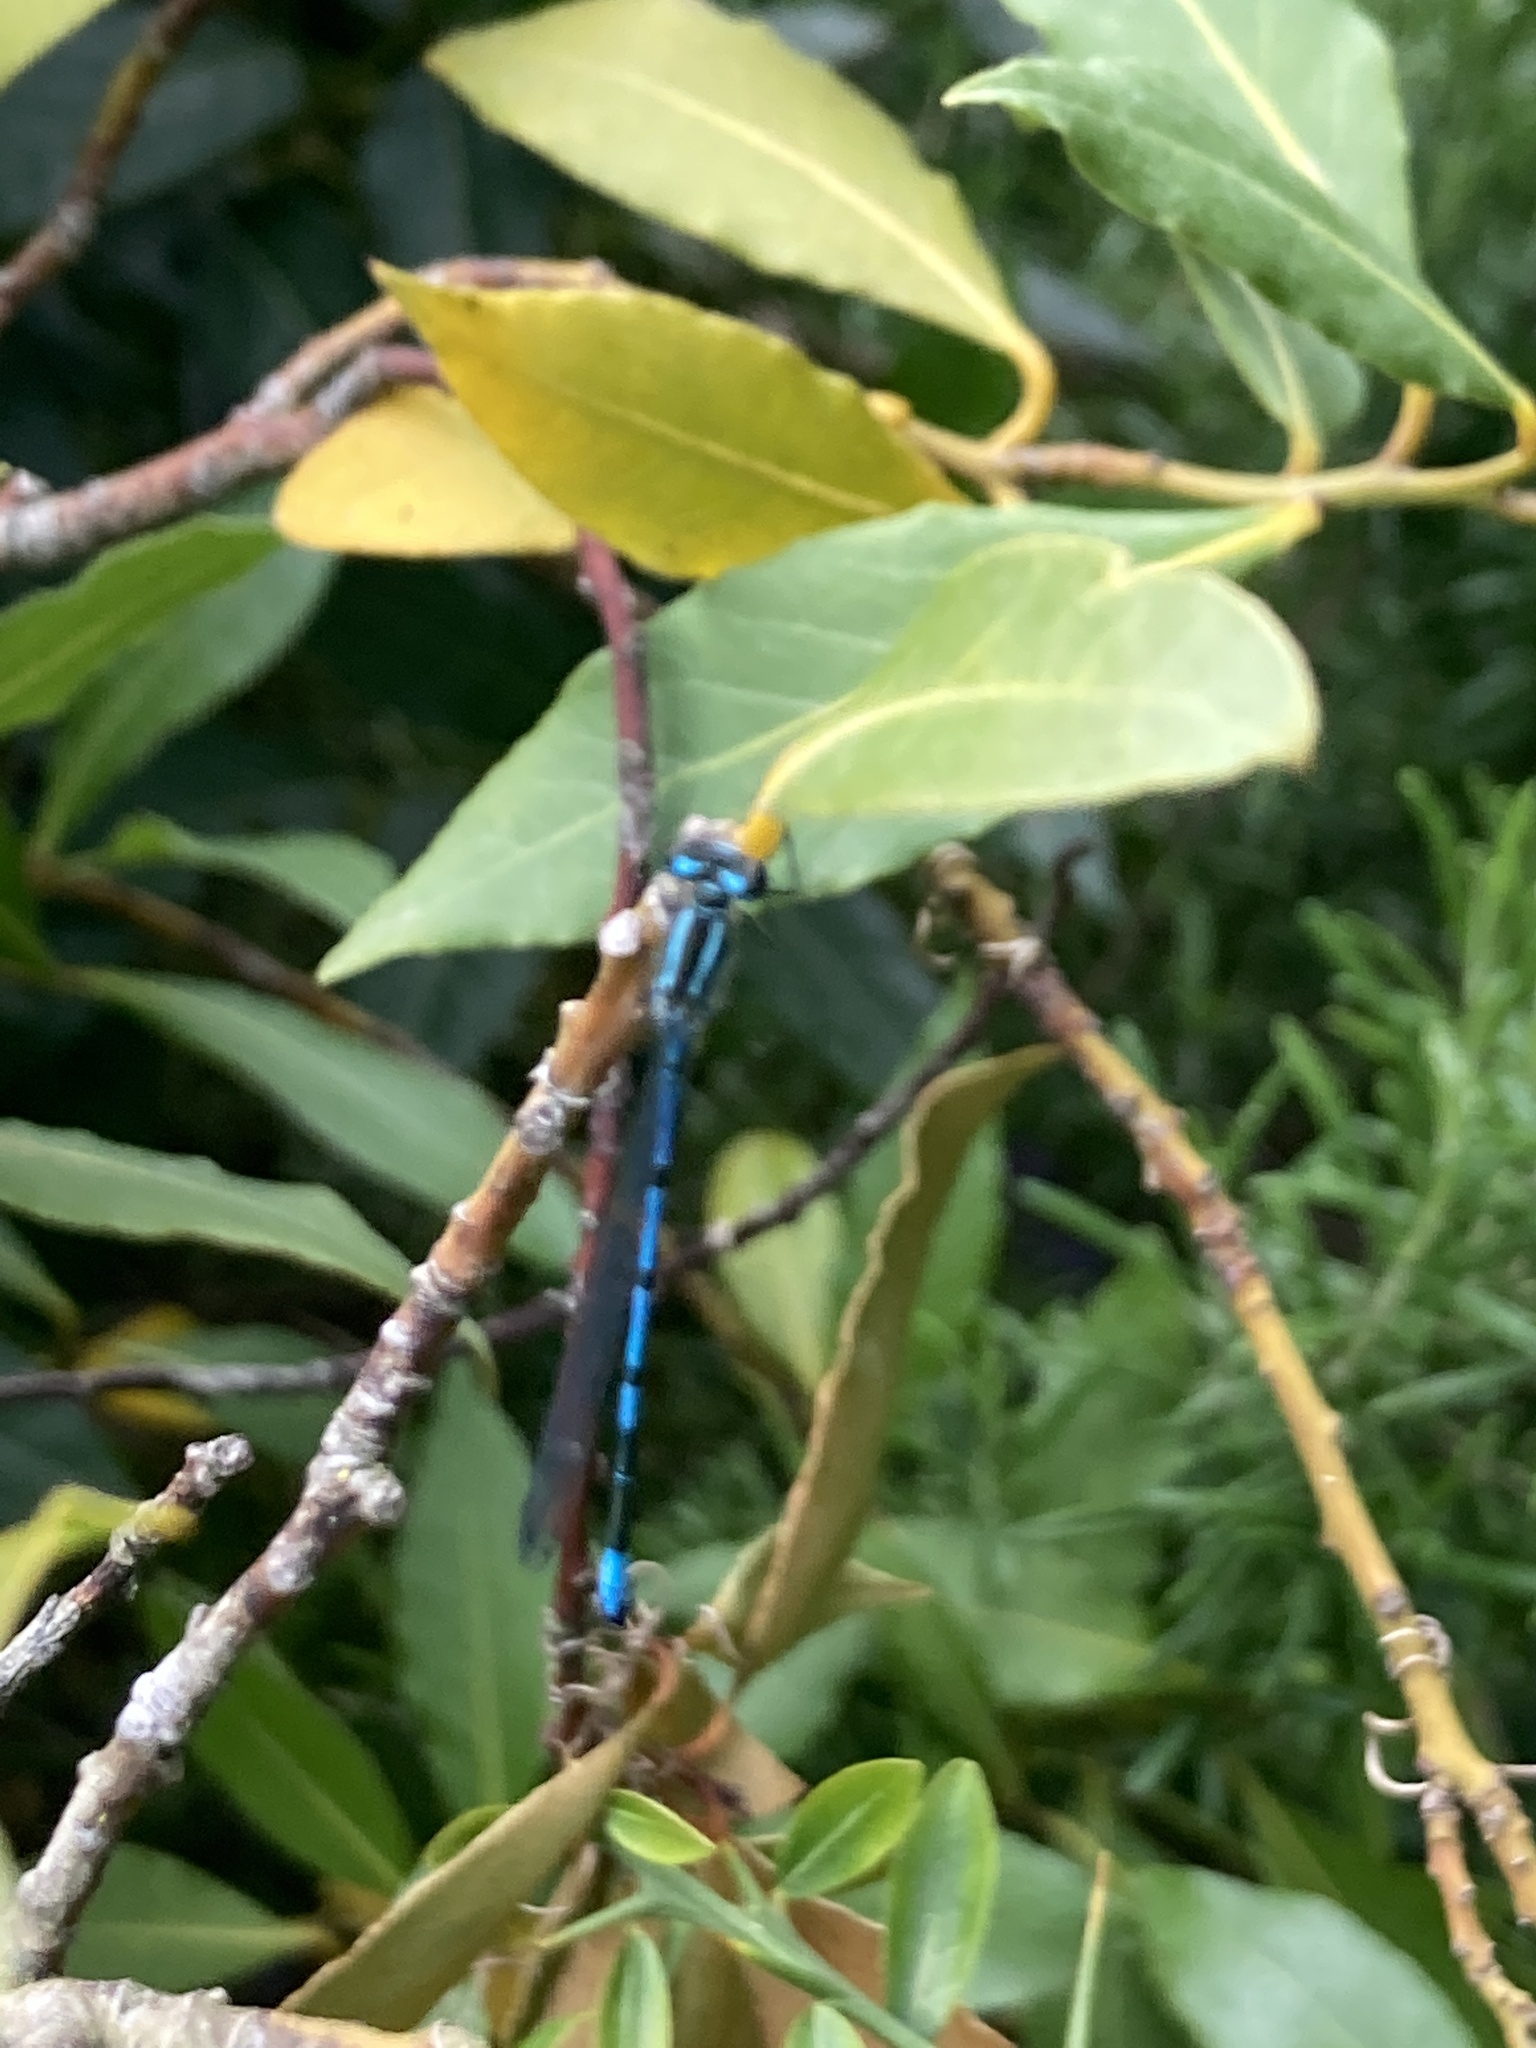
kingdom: Animalia
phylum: Arthropoda
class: Insecta
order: Odonata
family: Coenagrionidae
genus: Coenagrion
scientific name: Coenagrion puella
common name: Azure damselfly
